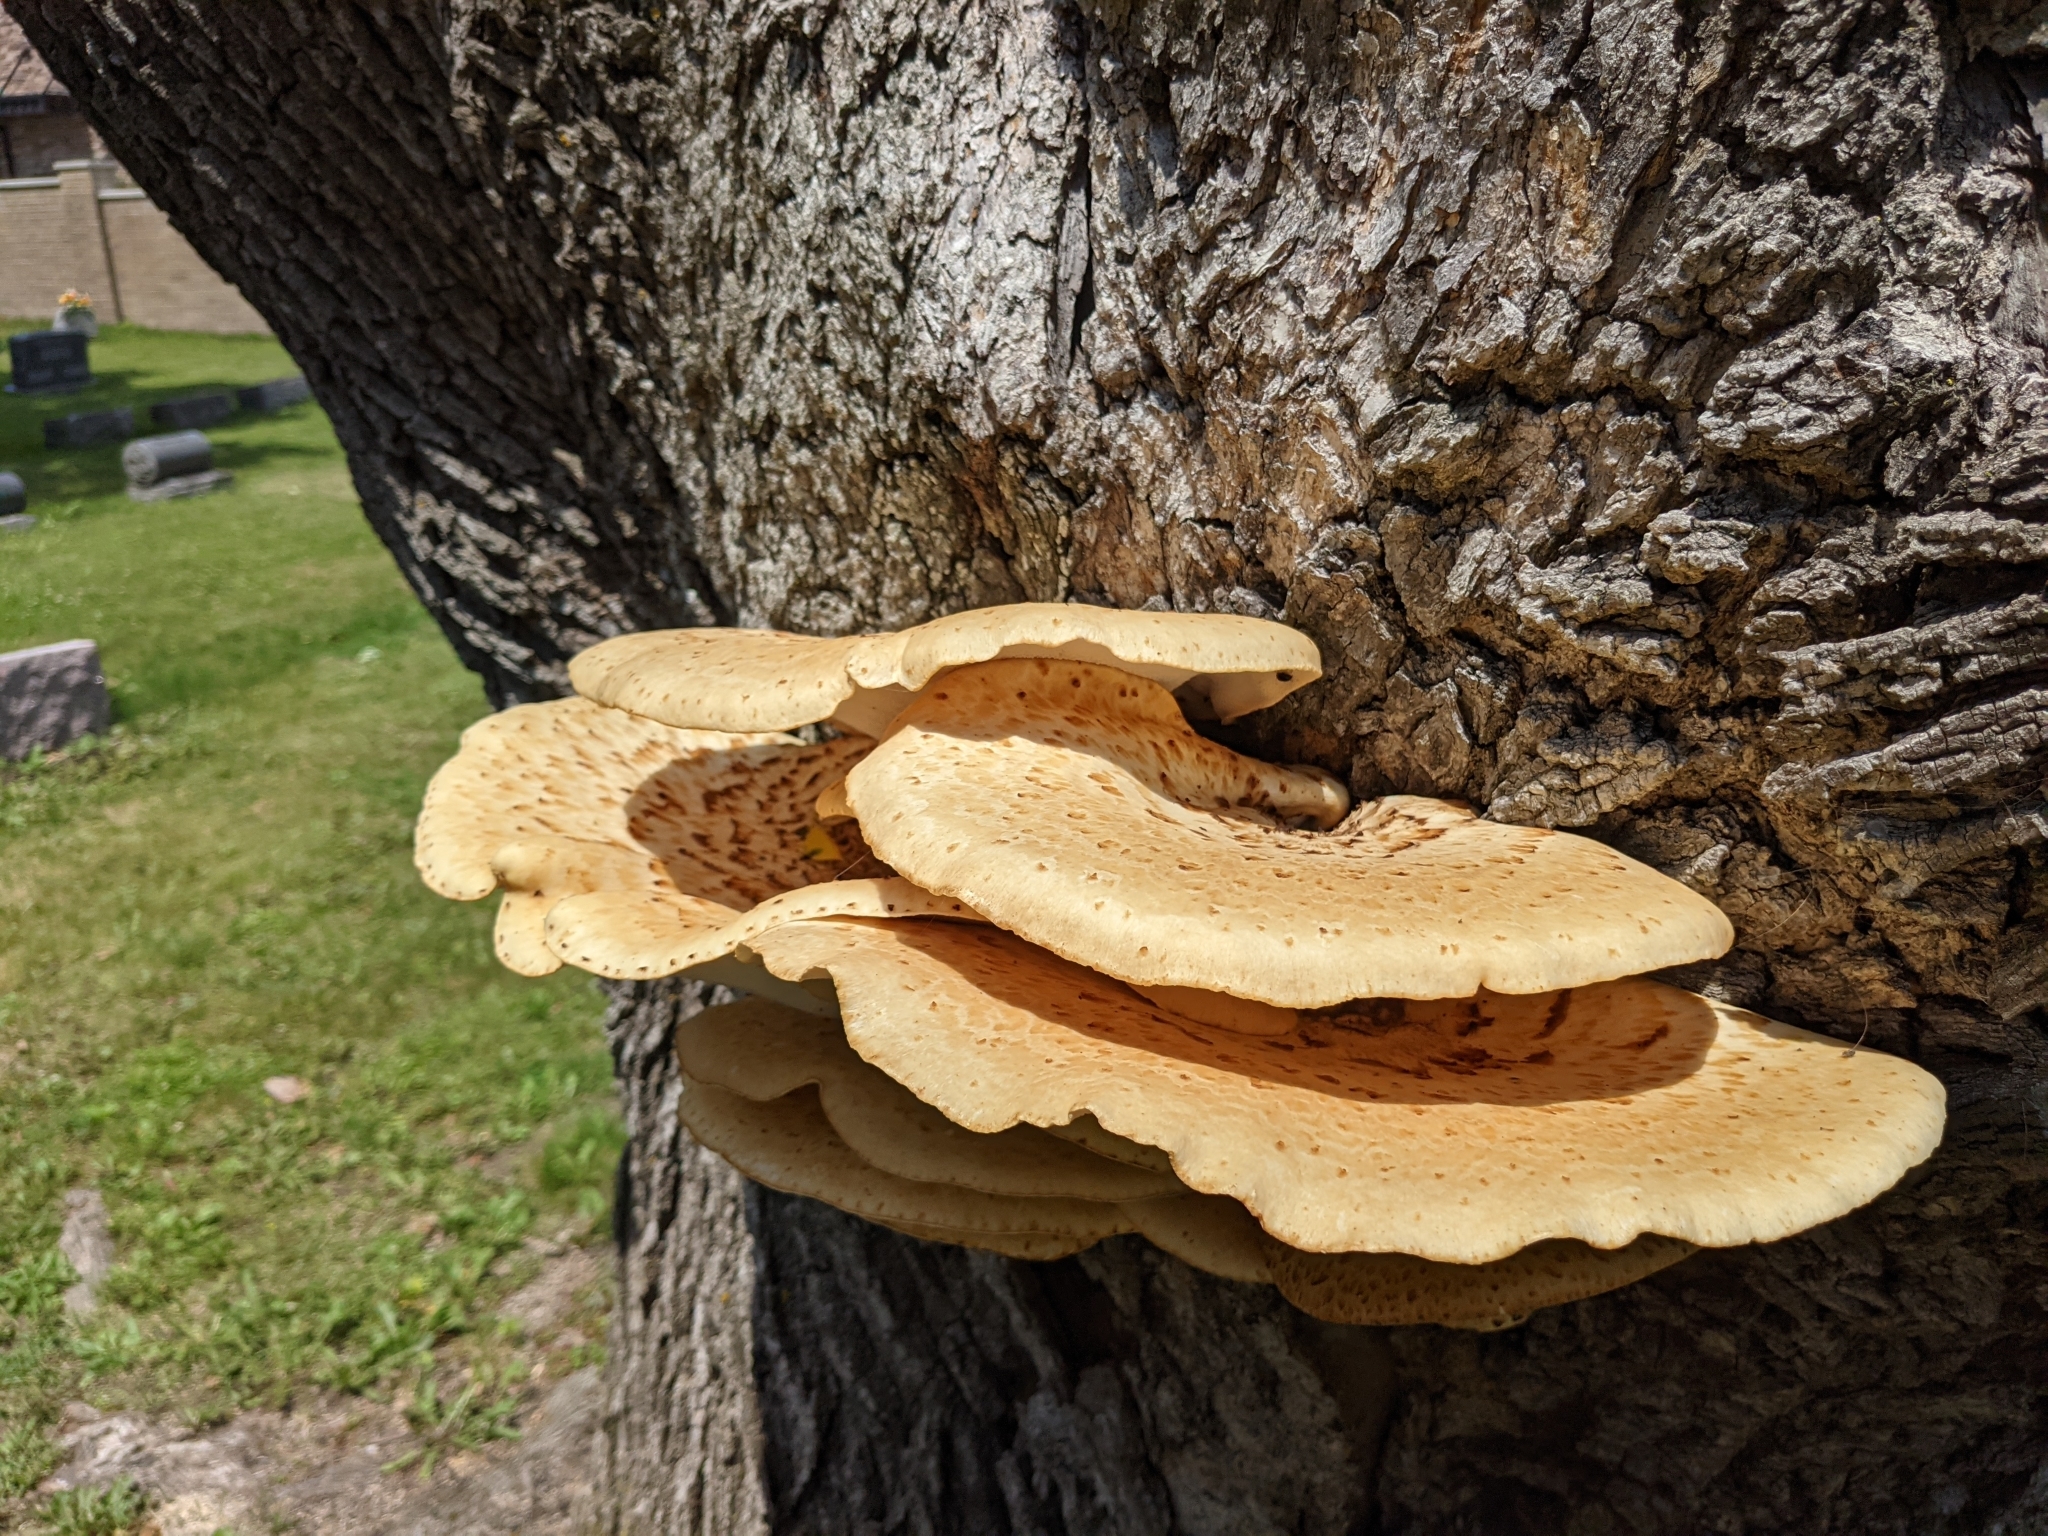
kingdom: Fungi
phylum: Basidiomycota
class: Agaricomycetes
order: Polyporales
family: Polyporaceae
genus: Cerioporus
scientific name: Cerioporus squamosus
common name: Dryad's saddle
